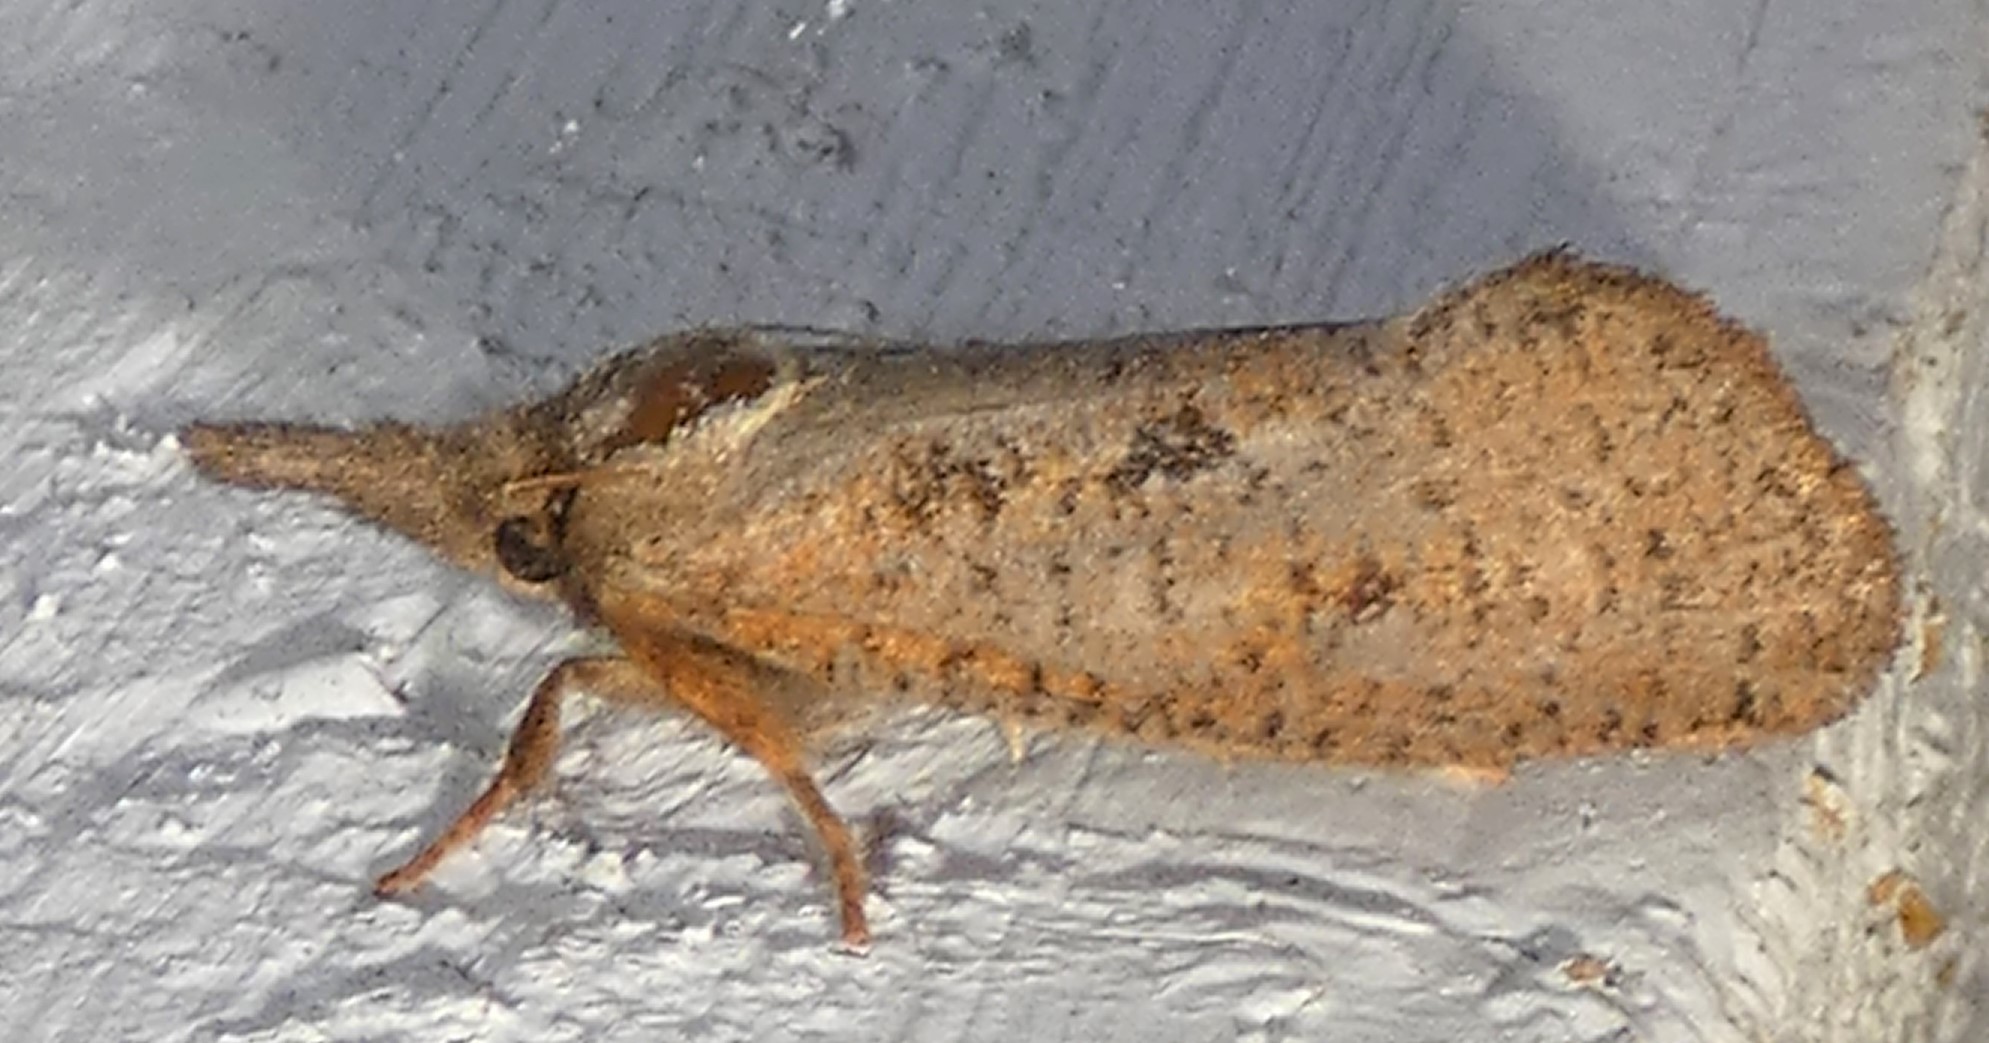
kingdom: Animalia
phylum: Arthropoda
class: Insecta
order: Lepidoptera
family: Tineidae
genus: Acrolophus
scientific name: Acrolophus plumifrontella
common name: Eastern grass tubeworm moth
